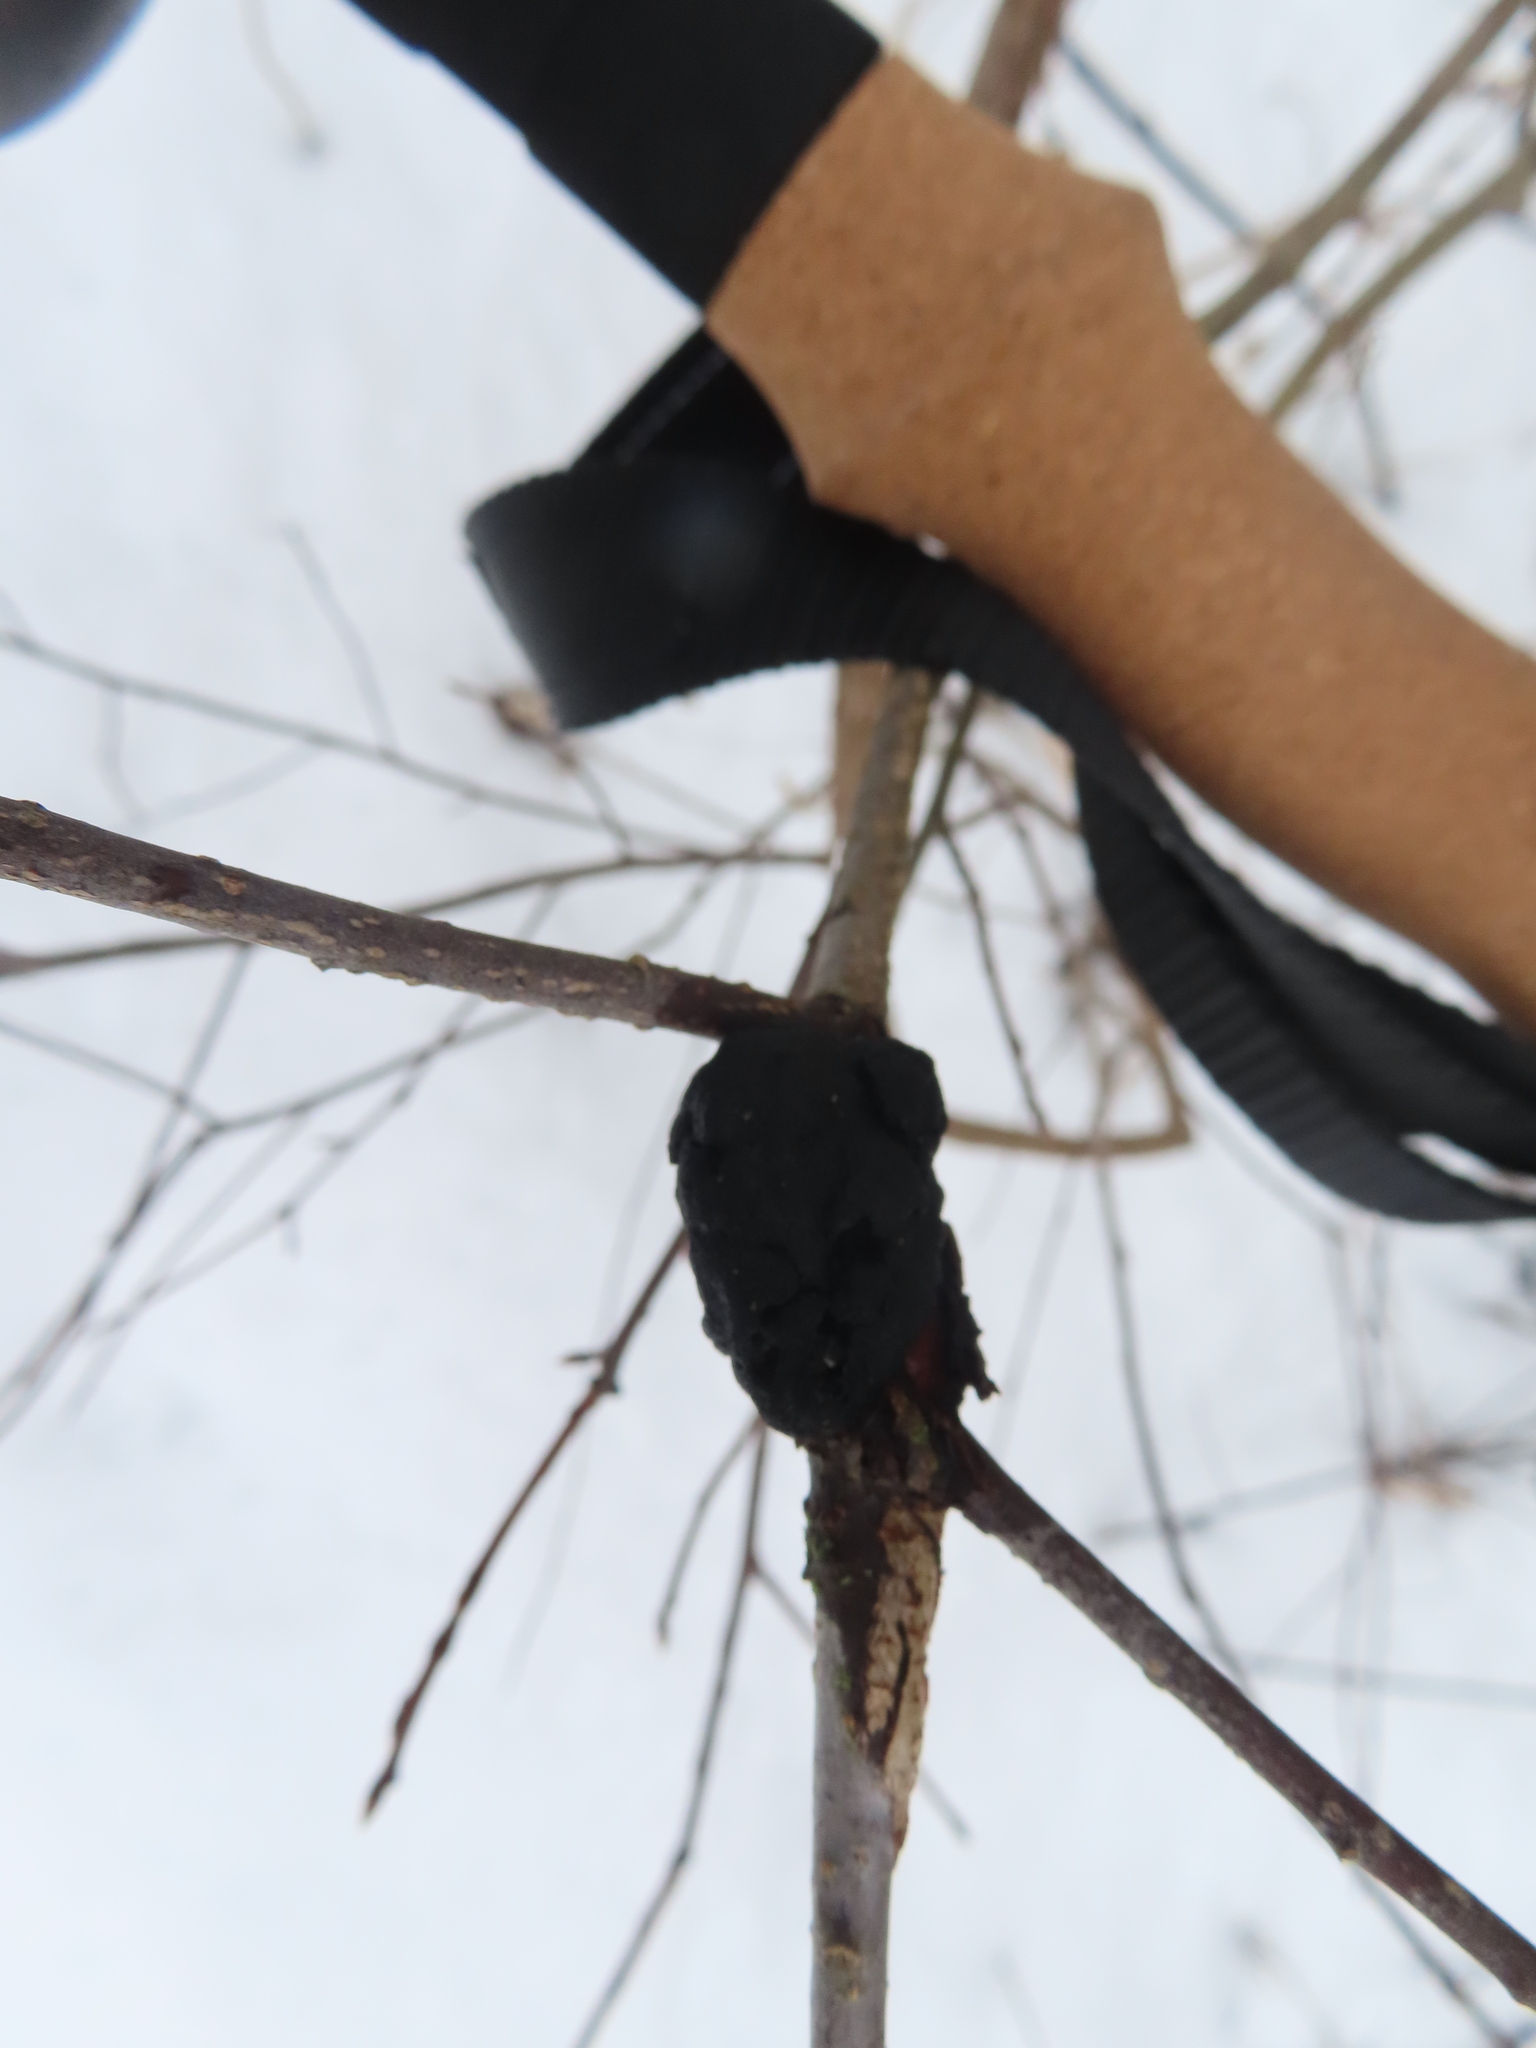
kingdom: Fungi
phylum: Ascomycota
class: Dothideomycetes
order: Venturiales
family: Venturiaceae
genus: Apiosporina
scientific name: Apiosporina morbosa
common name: Black knot
